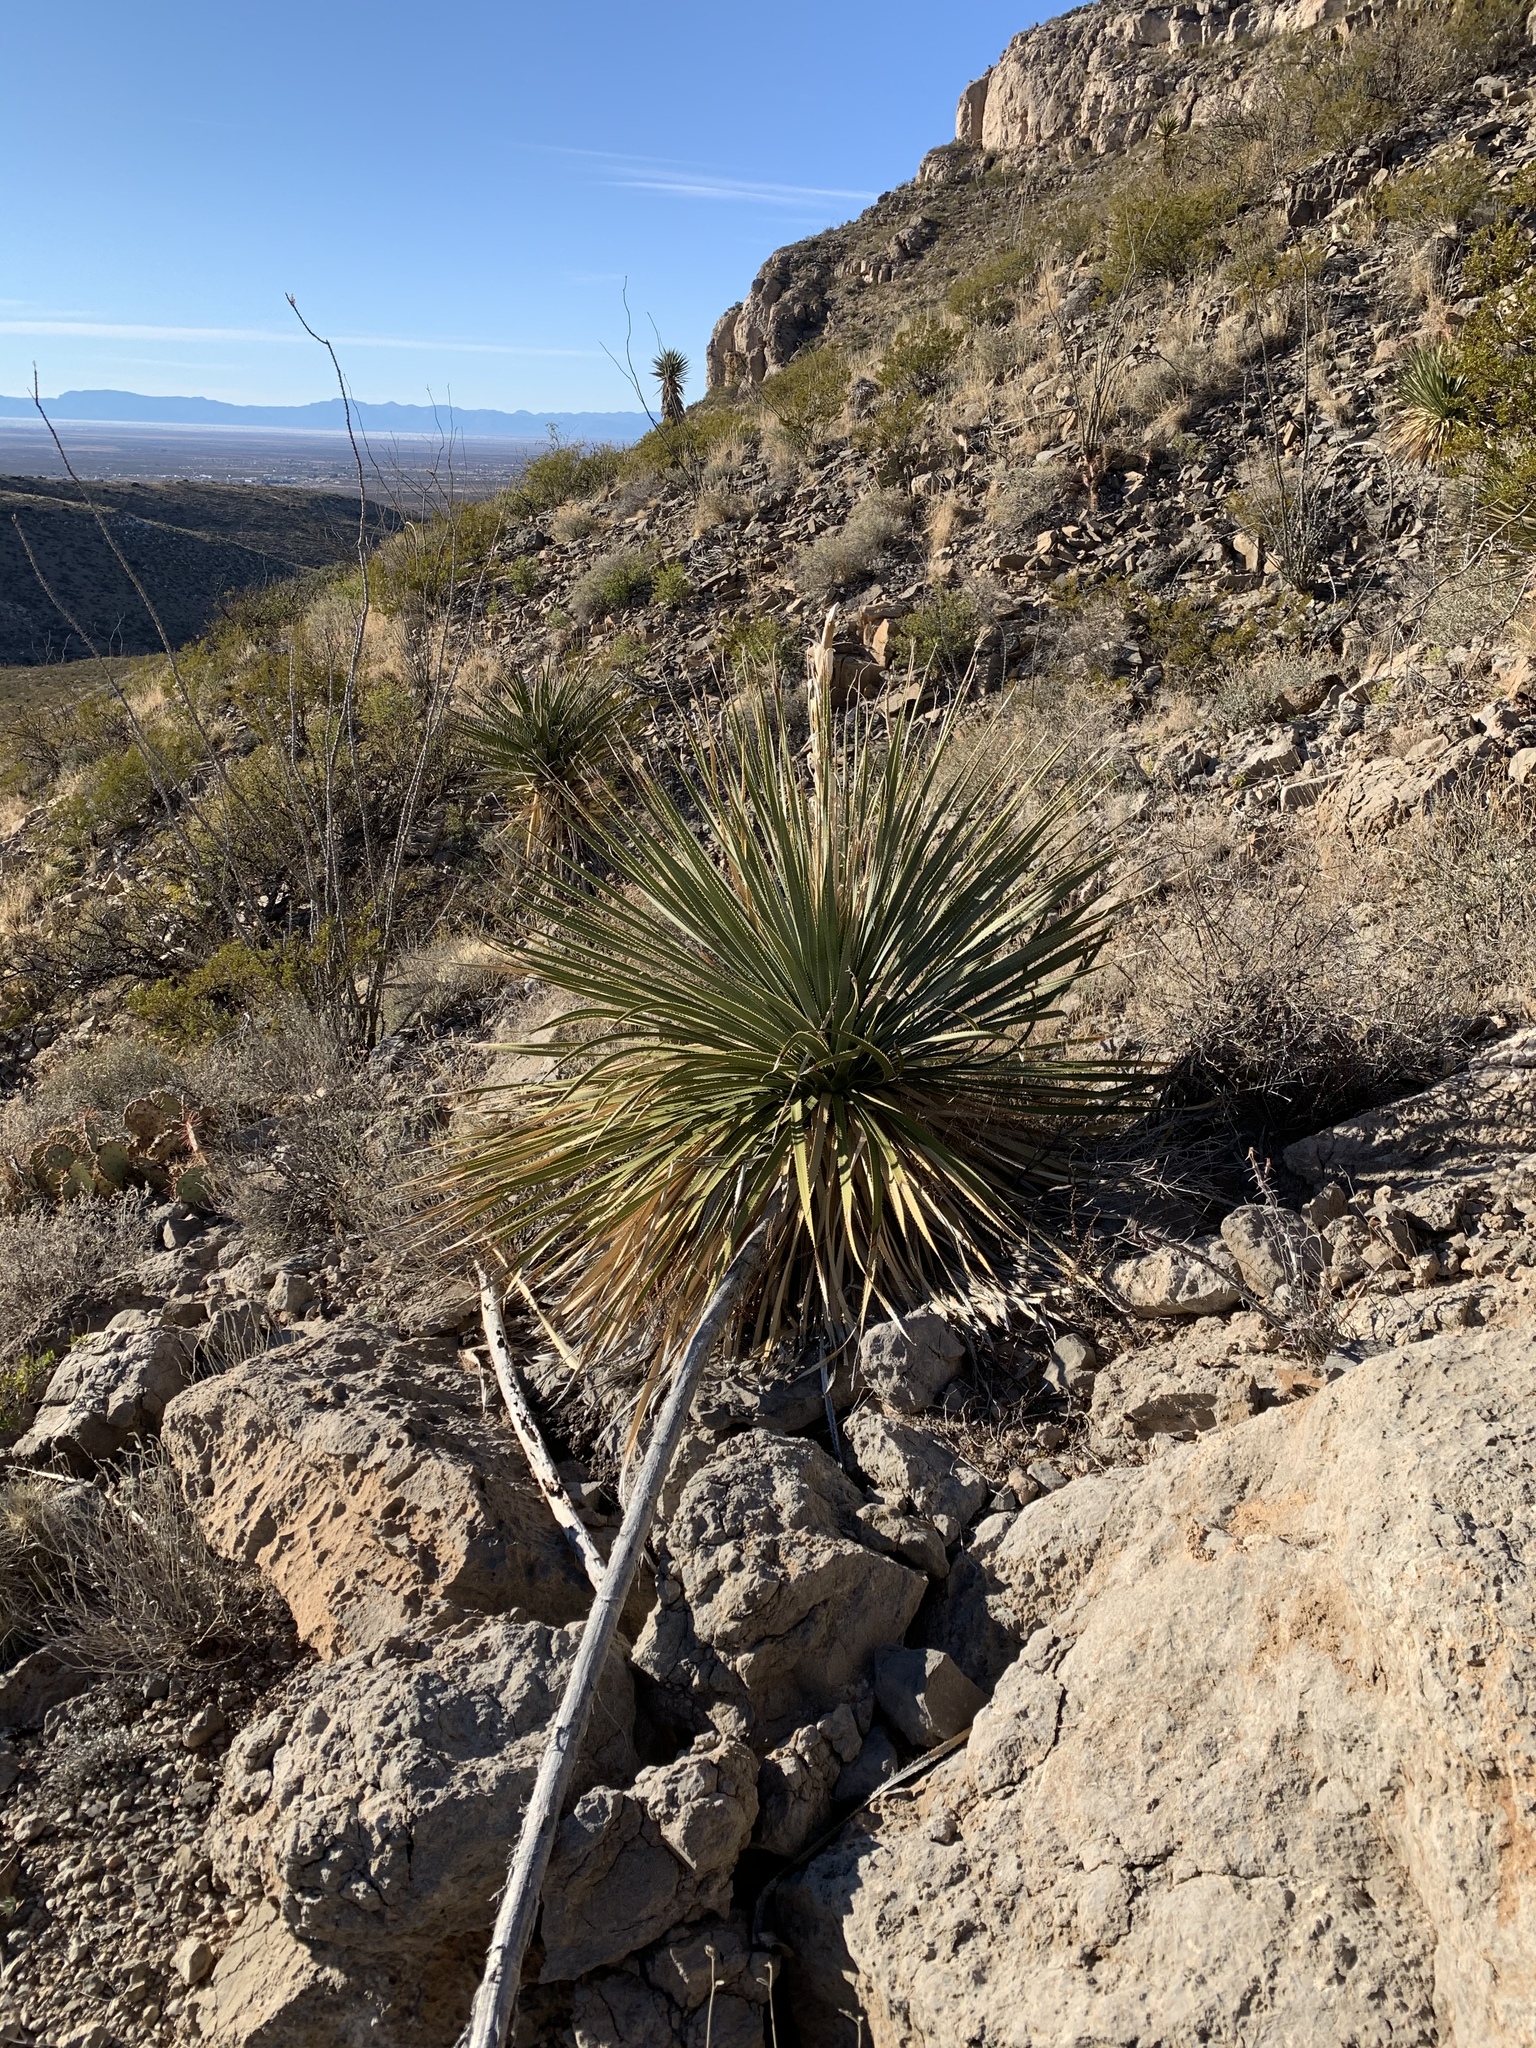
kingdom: Plantae
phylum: Tracheophyta
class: Liliopsida
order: Asparagales
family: Asparagaceae
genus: Dasylirion
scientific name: Dasylirion wheeleri
